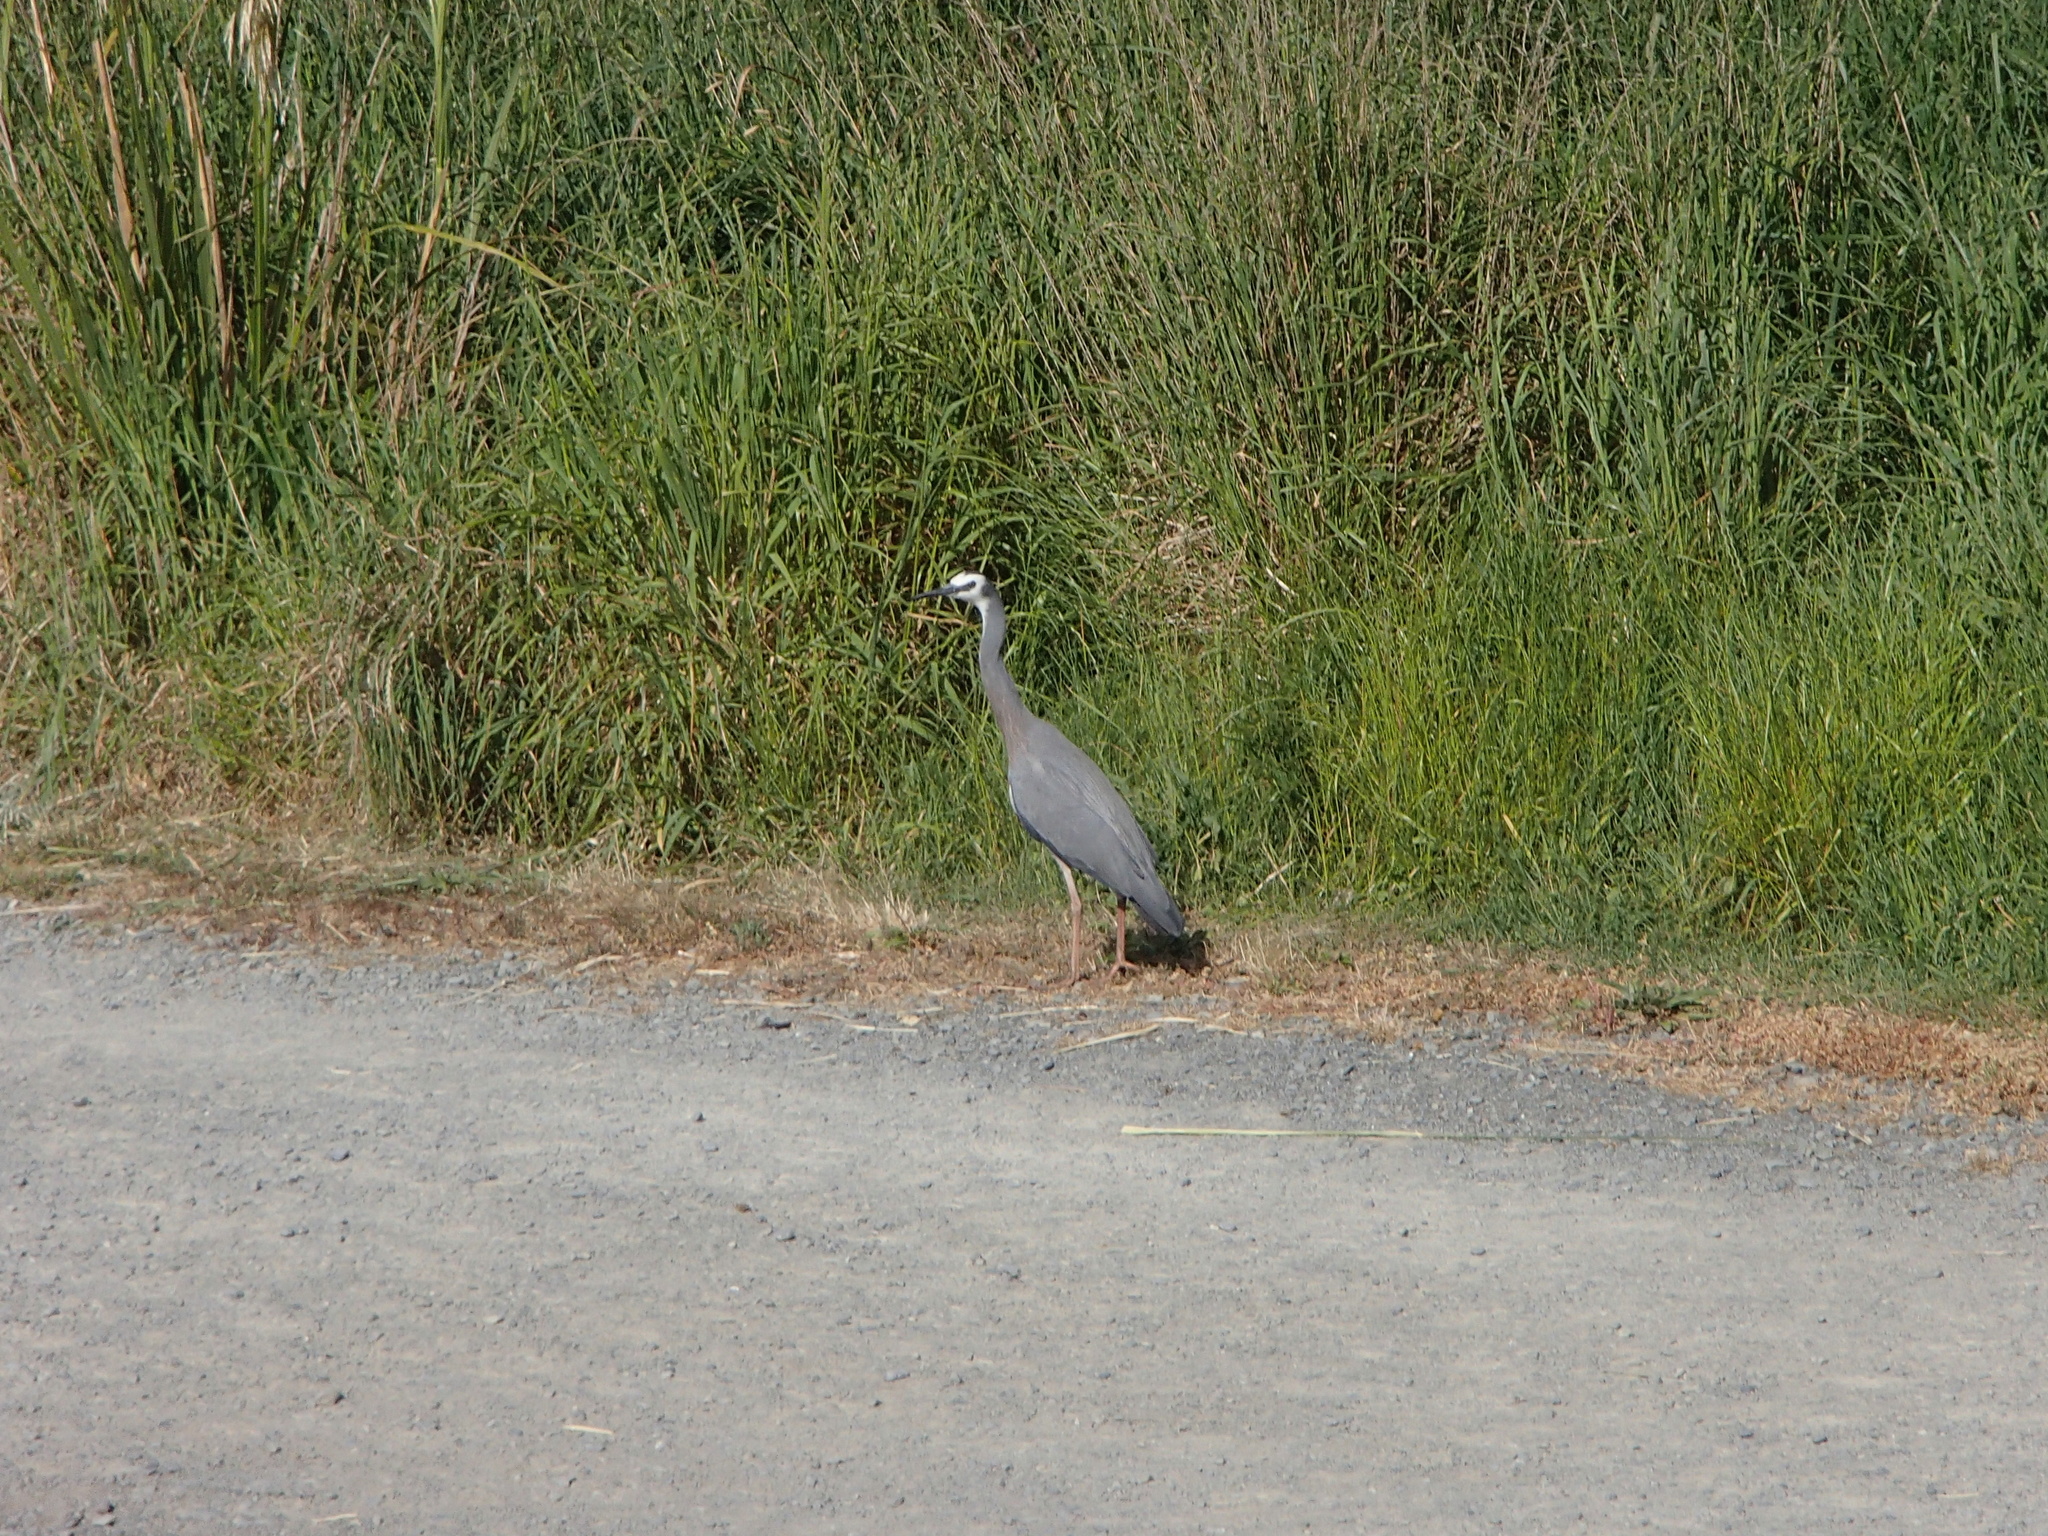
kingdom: Animalia
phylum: Chordata
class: Aves
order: Pelecaniformes
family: Ardeidae
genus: Egretta
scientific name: Egretta novaehollandiae
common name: White-faced heron
